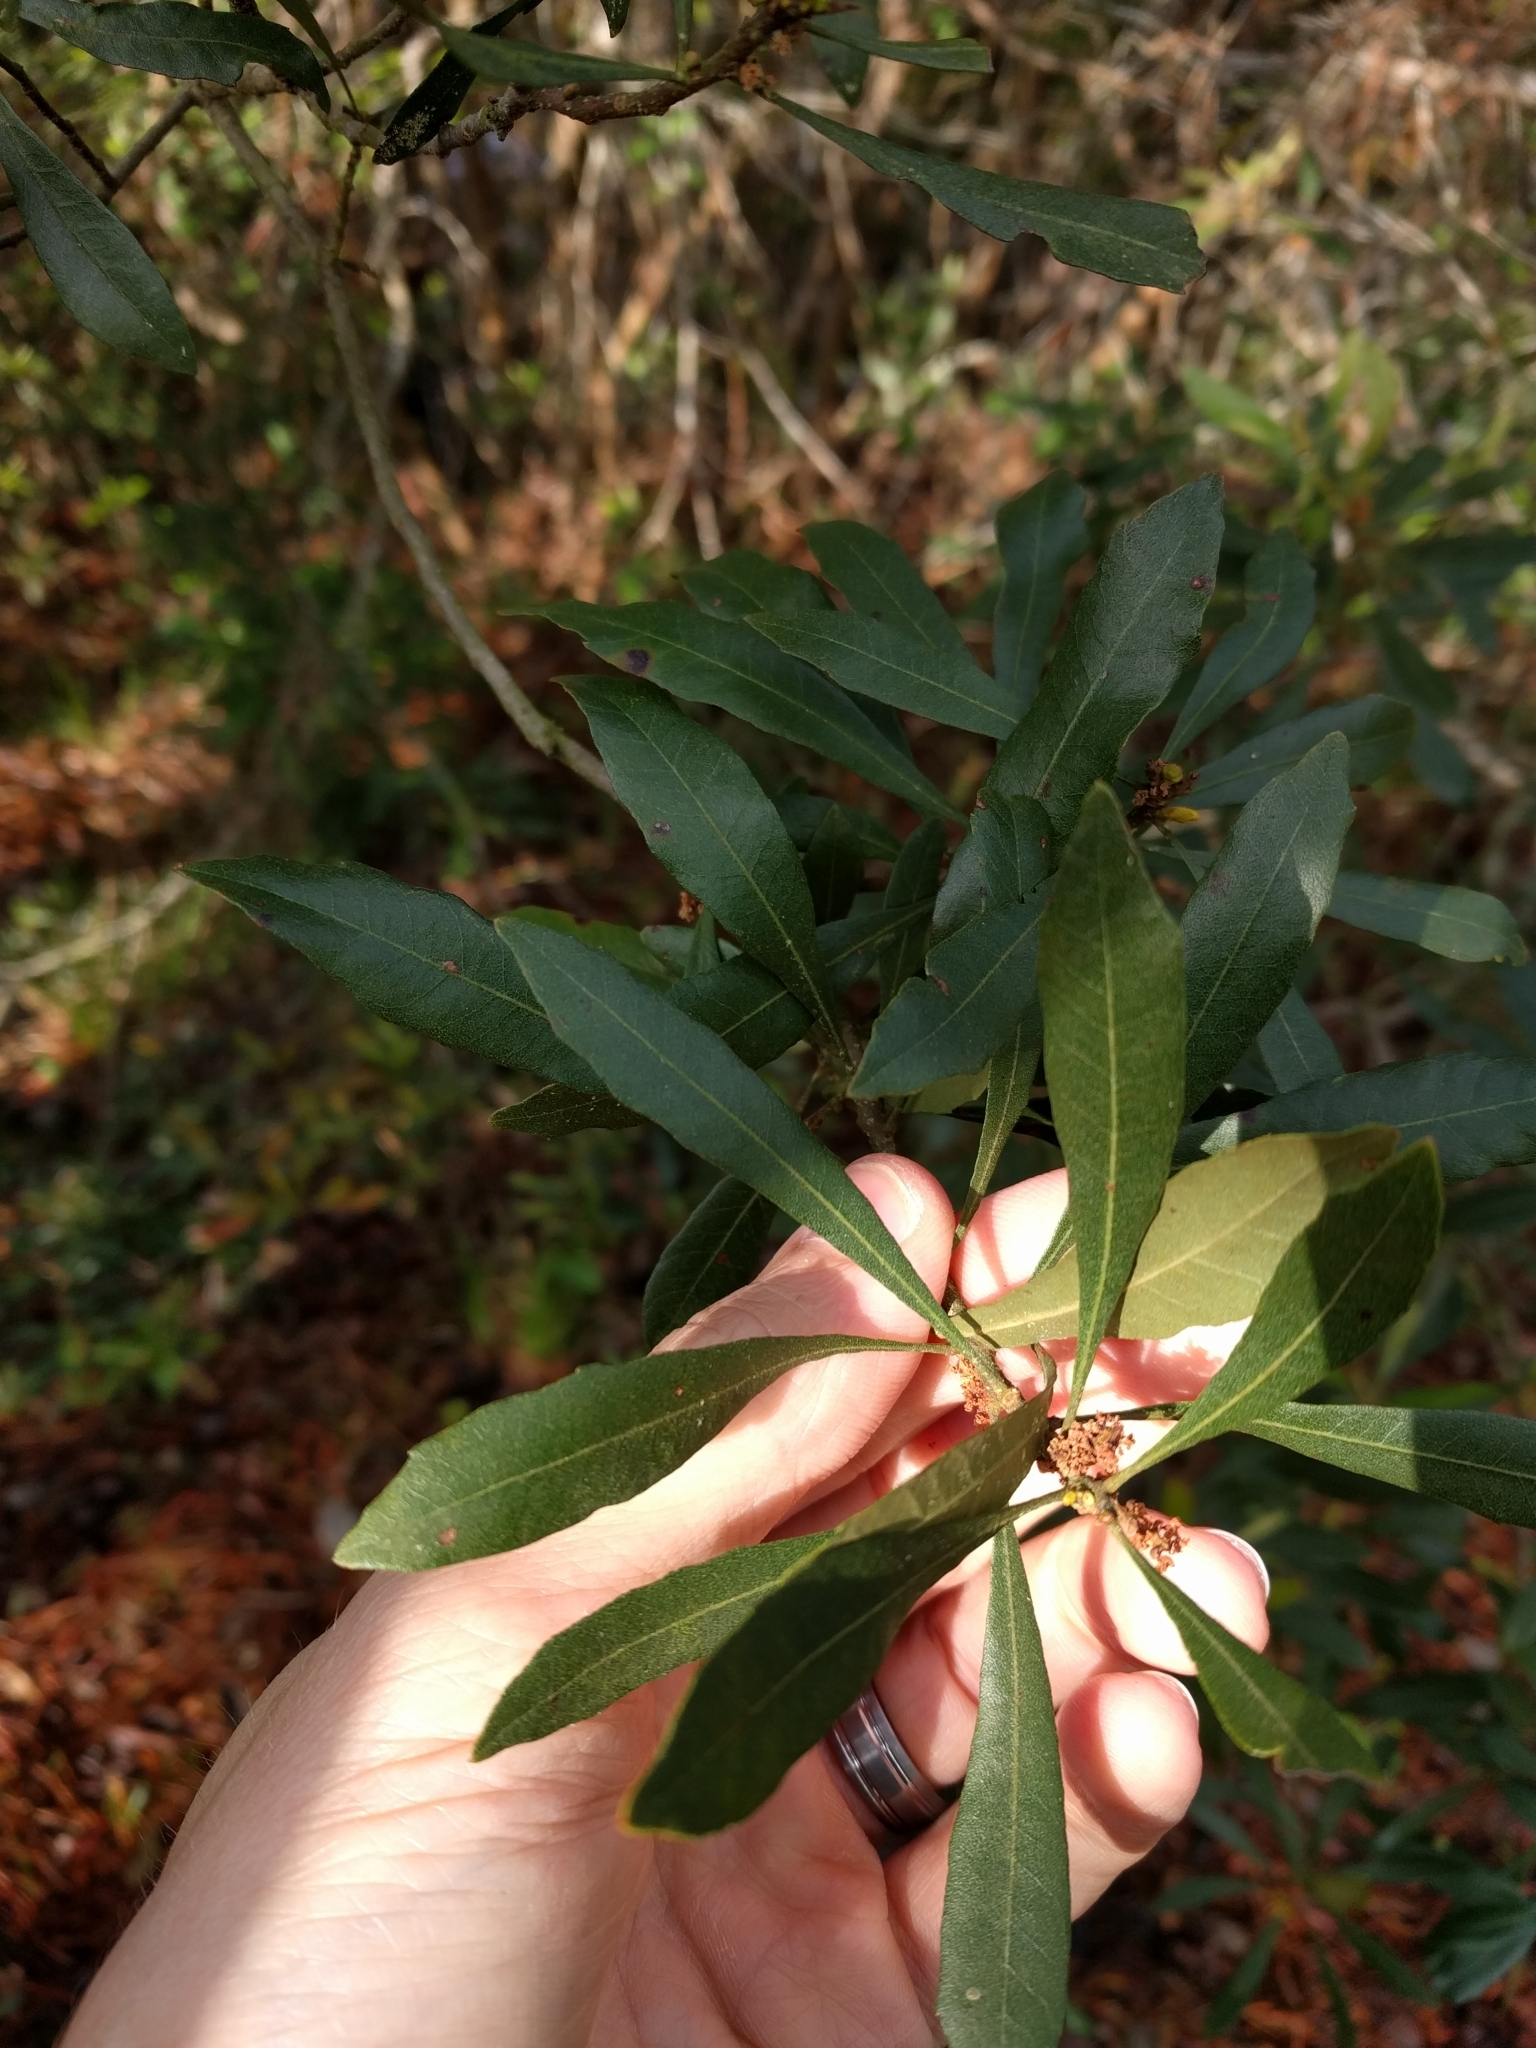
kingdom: Plantae
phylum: Tracheophyta
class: Magnoliopsida
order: Fagales
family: Myricaceae
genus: Morella
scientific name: Morella cerifera
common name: Wax myrtle
